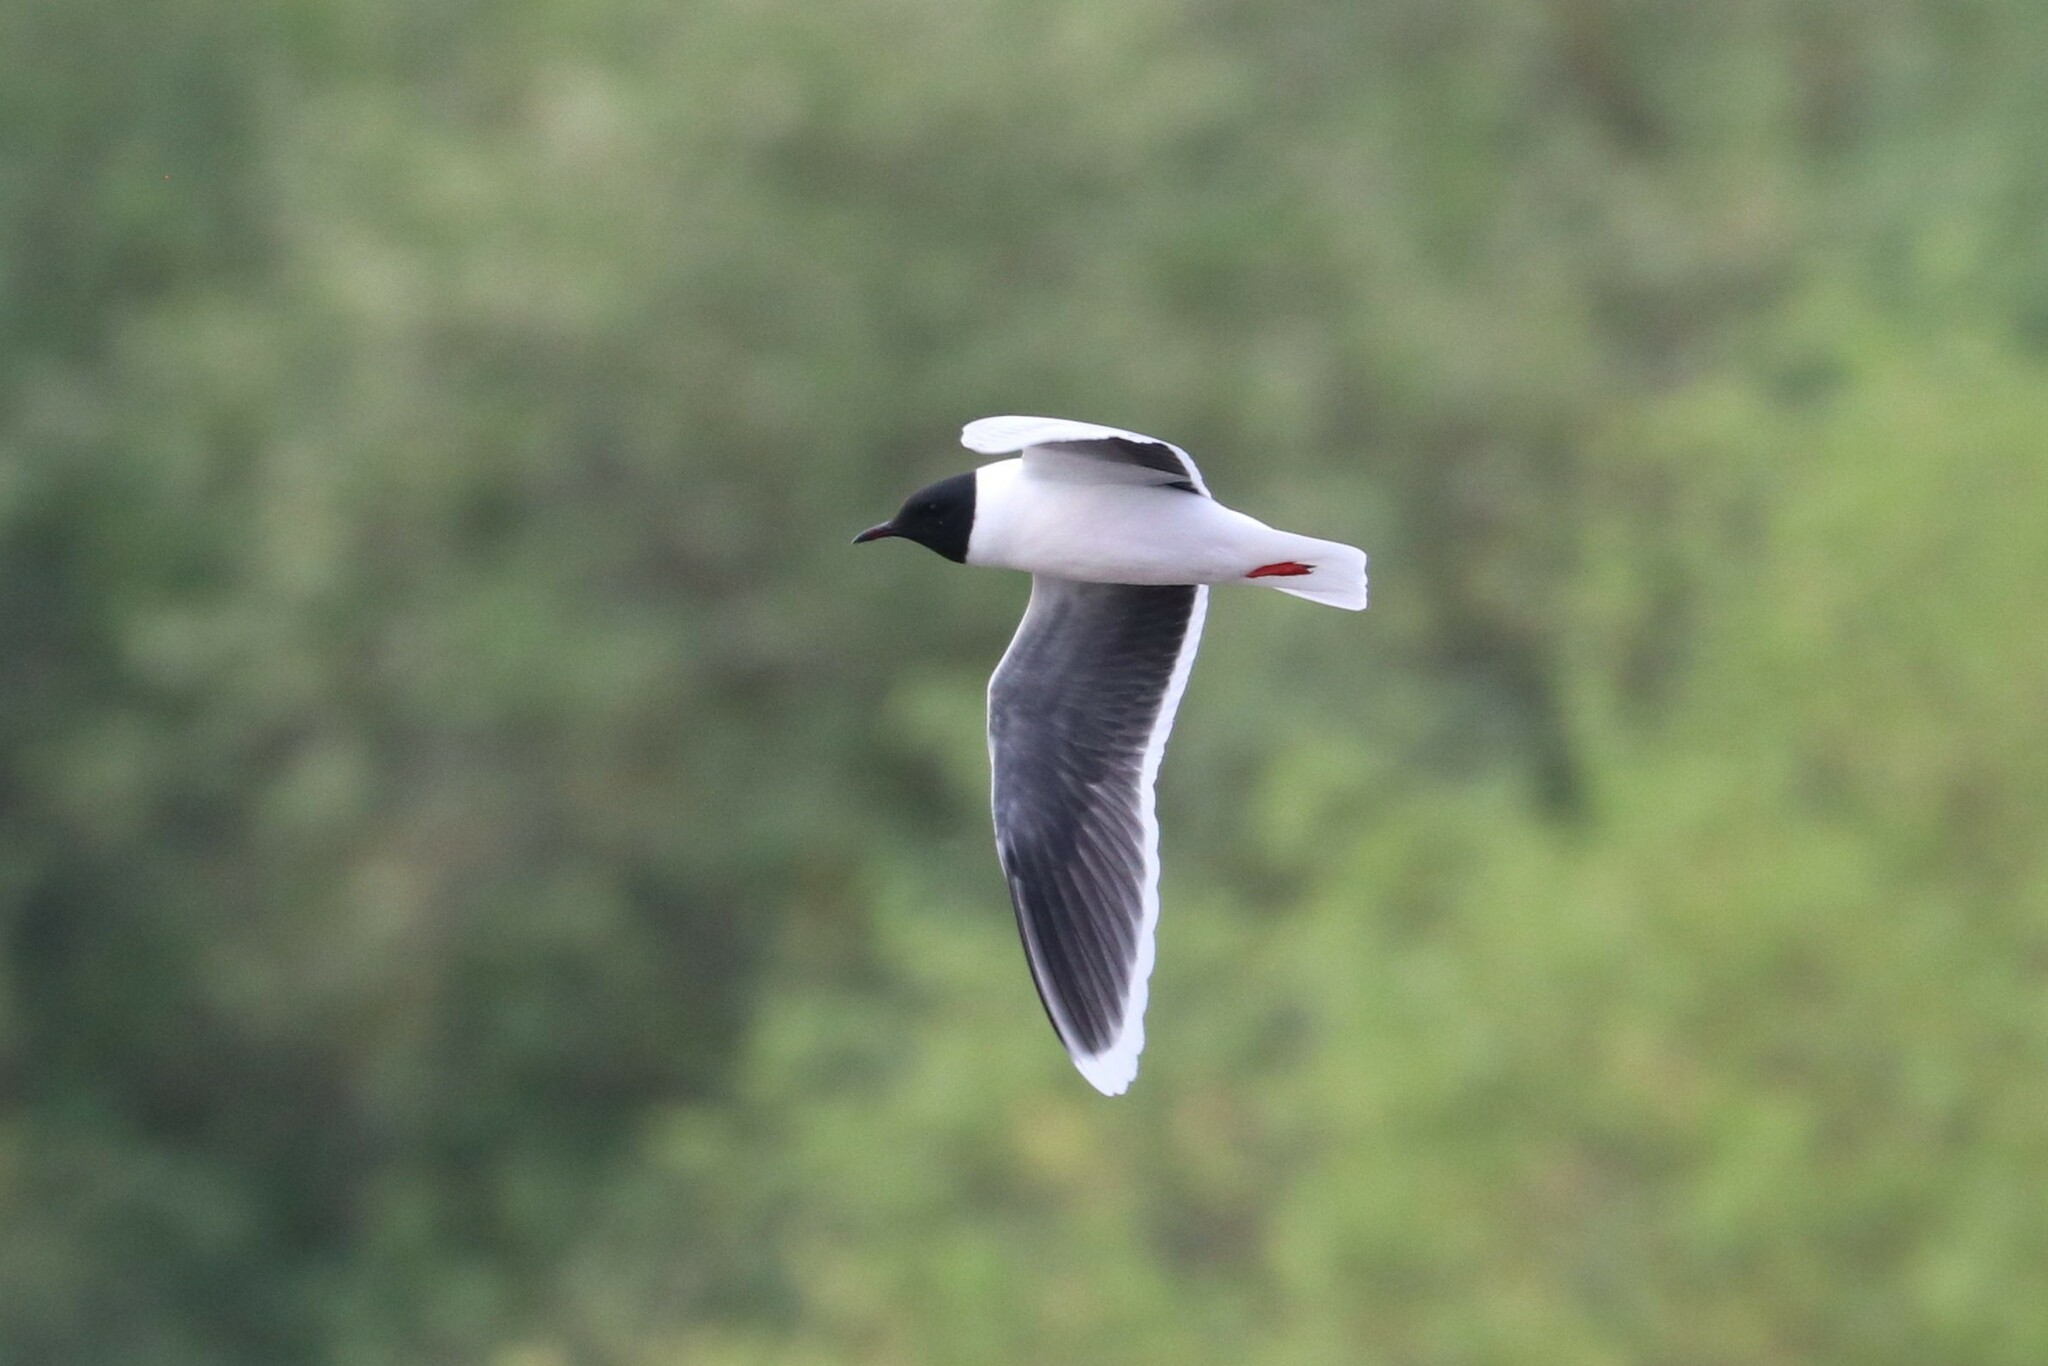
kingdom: Animalia
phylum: Chordata
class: Aves
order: Charadriiformes
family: Laridae
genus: Hydrocoloeus
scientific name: Hydrocoloeus minutus
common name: Little gull
